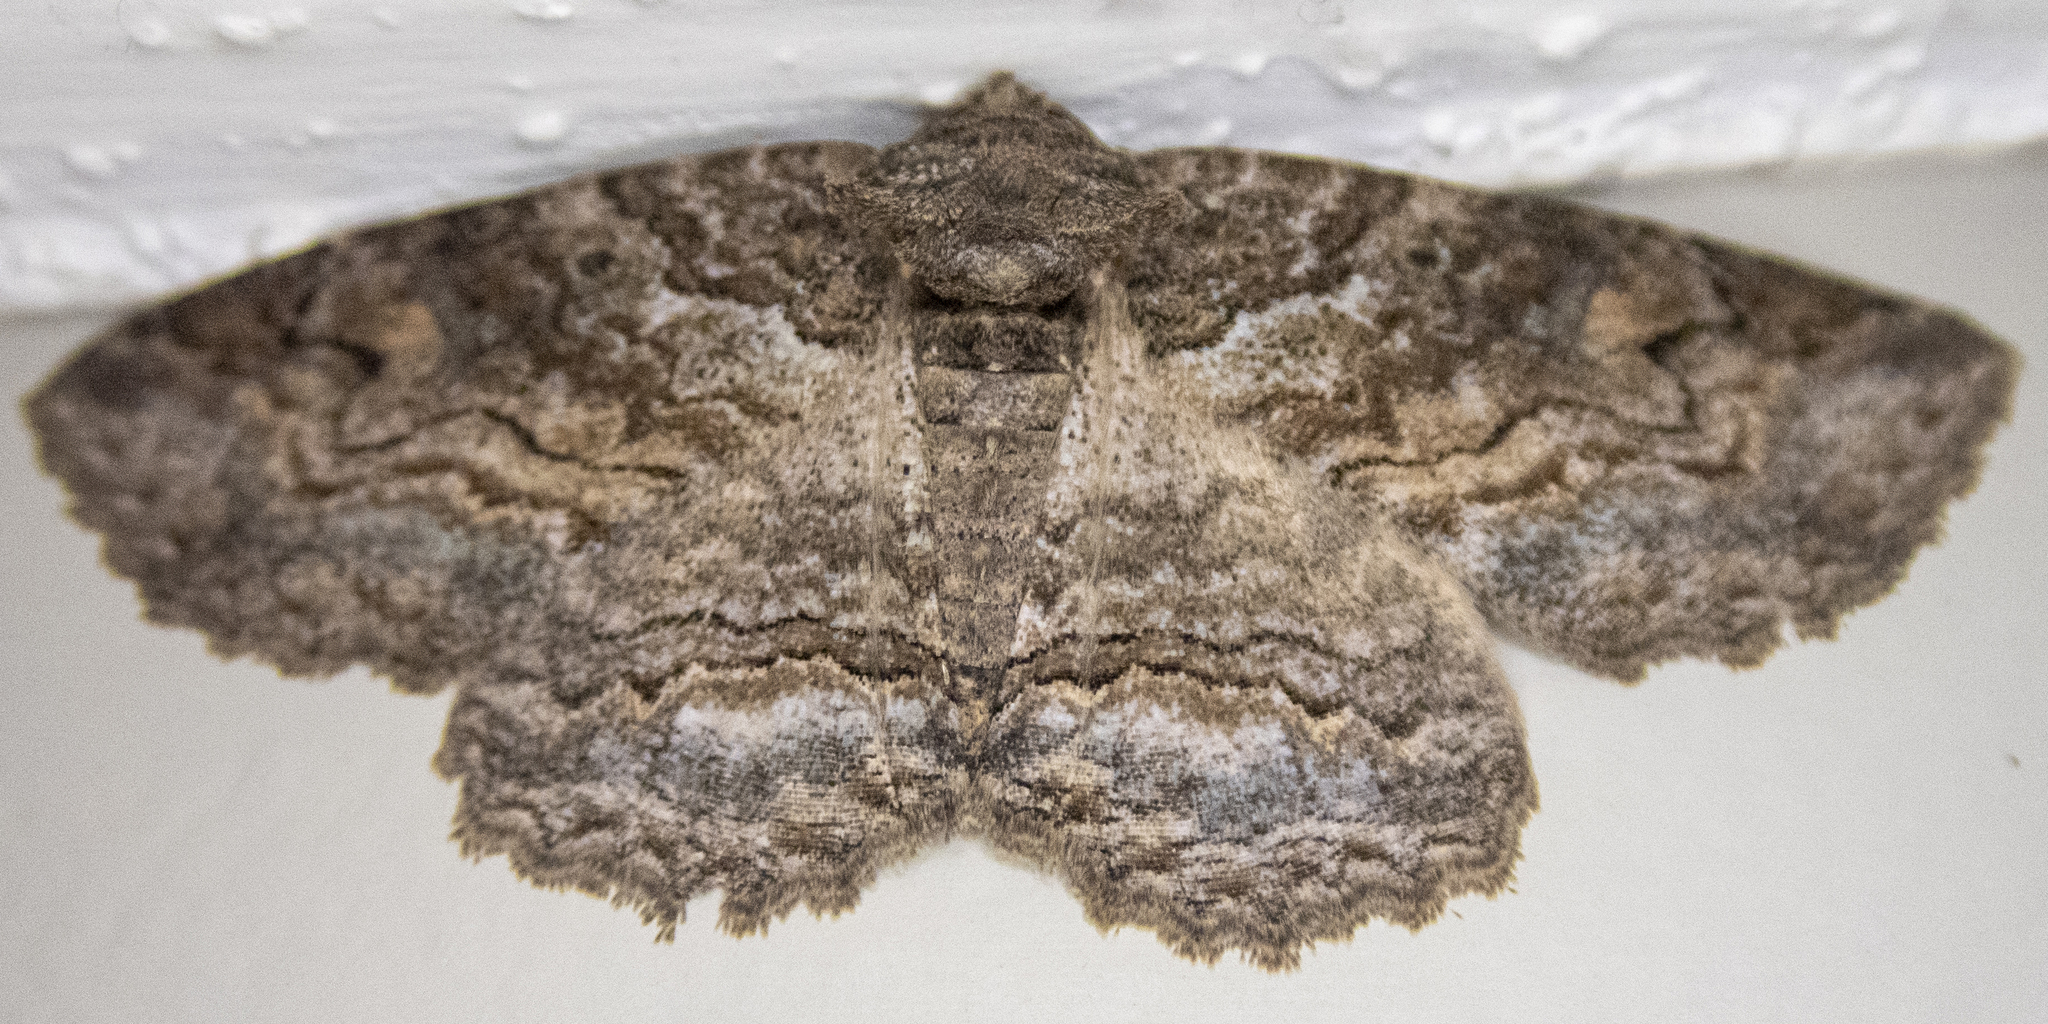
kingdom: Animalia
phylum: Arthropoda
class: Insecta
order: Lepidoptera
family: Erebidae
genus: Zale
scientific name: Zale galbanata
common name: Maple zale
